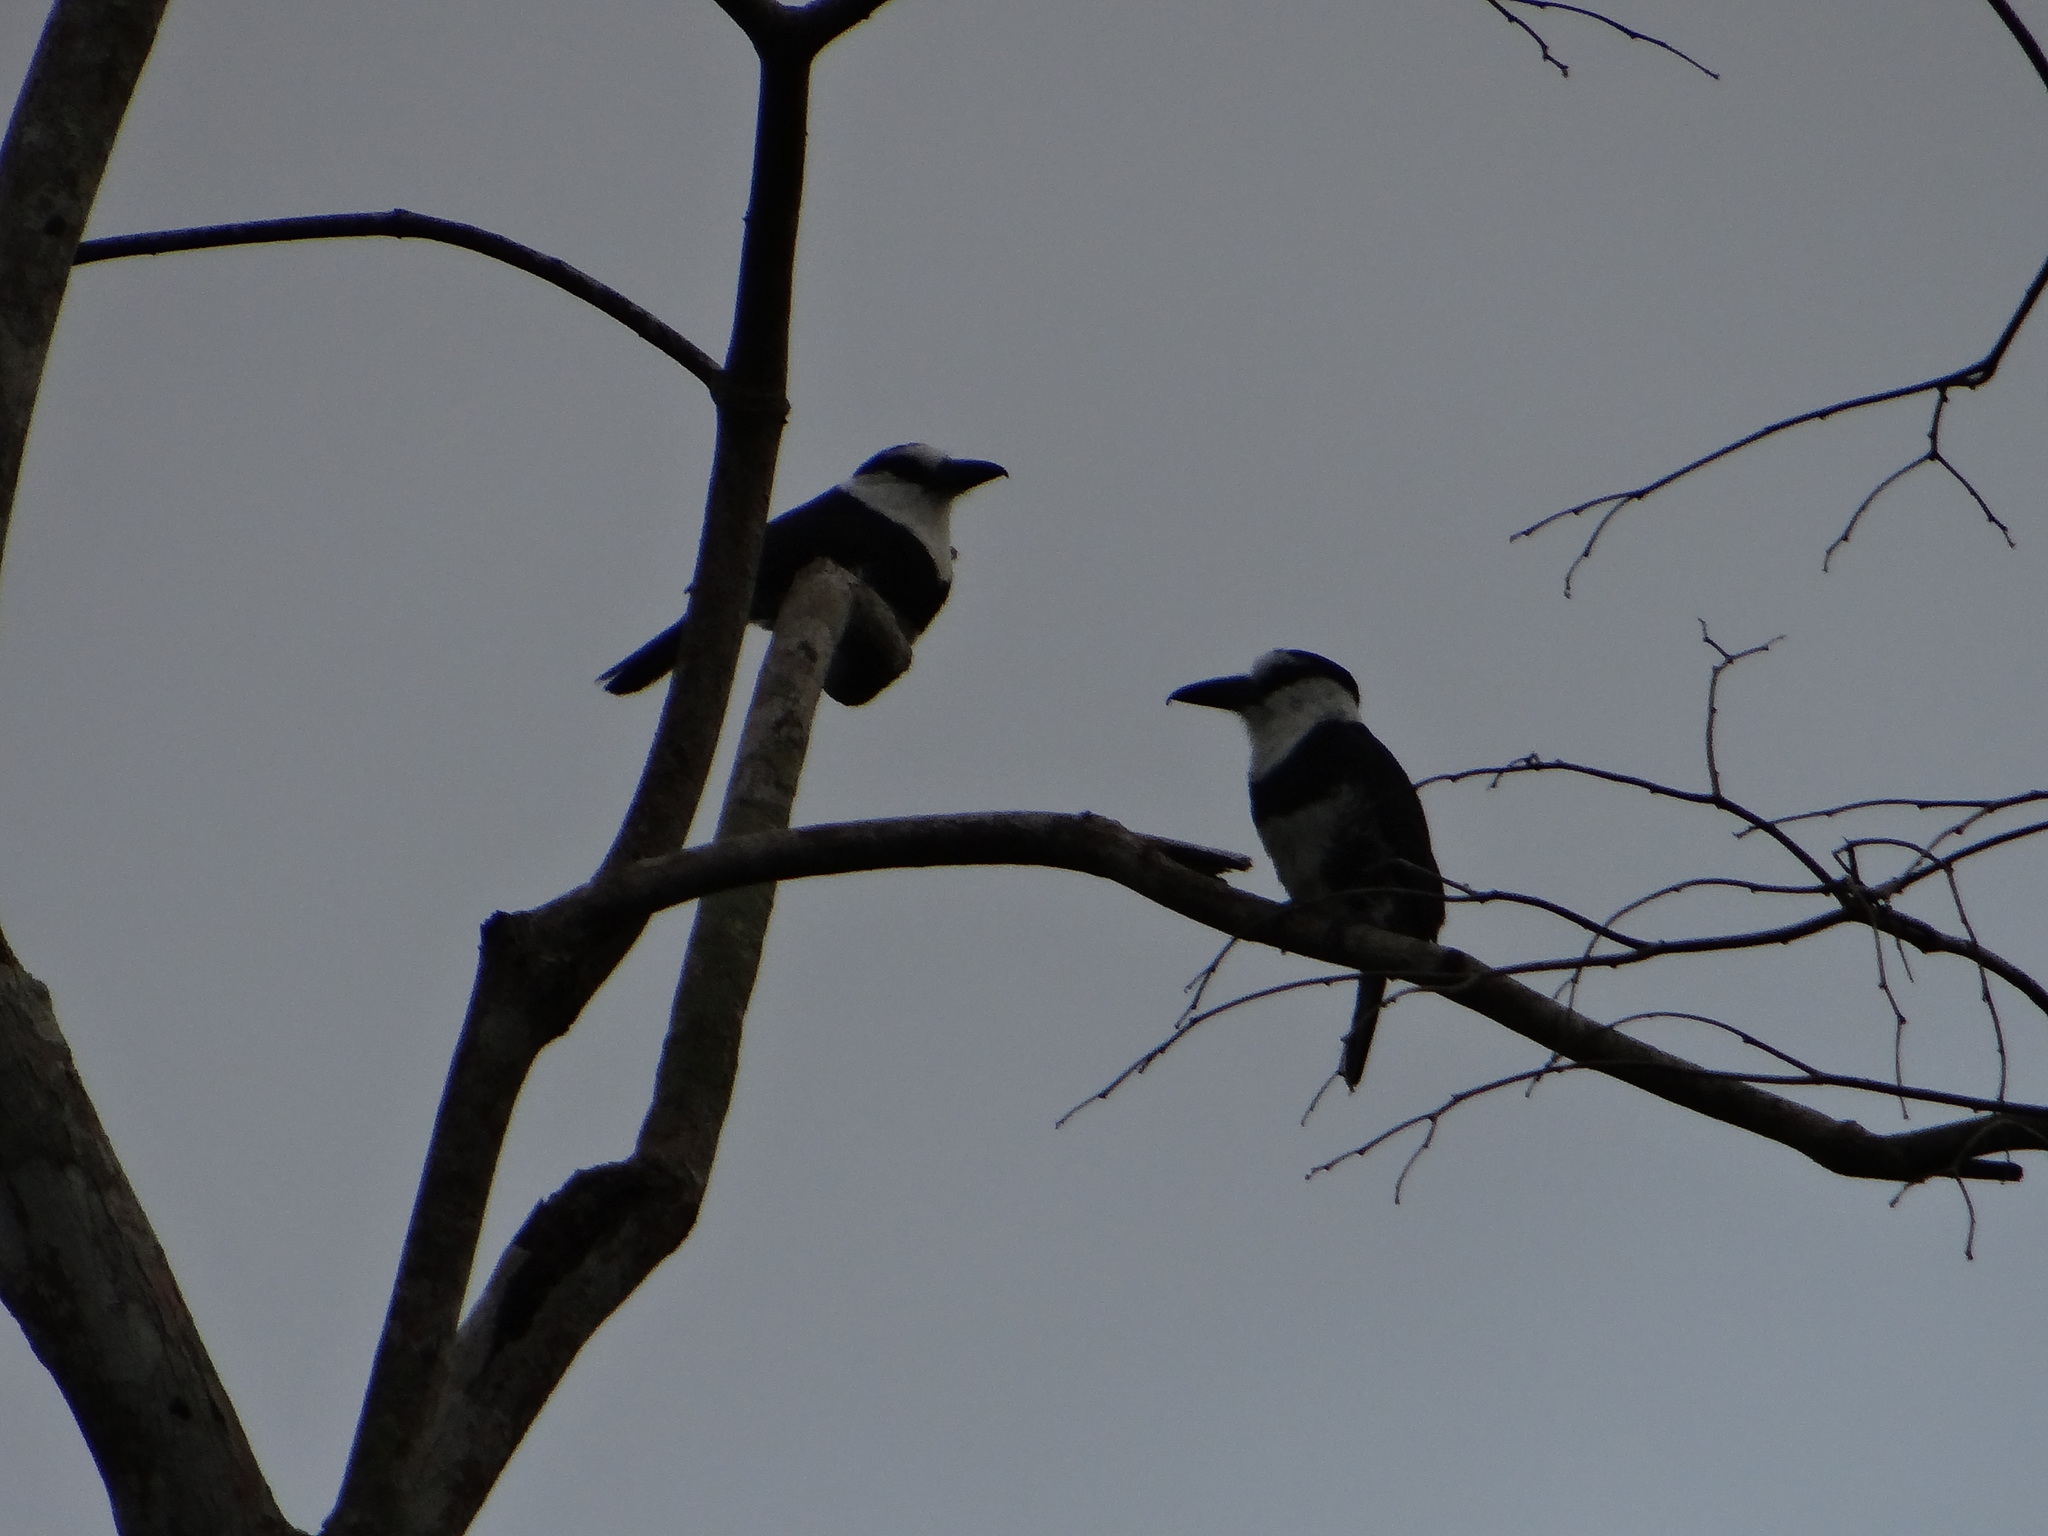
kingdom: Animalia
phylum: Chordata
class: Aves
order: Piciformes
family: Bucconidae
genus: Notharchus
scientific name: Notharchus hyperrhynchus
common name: White-necked puffbird
